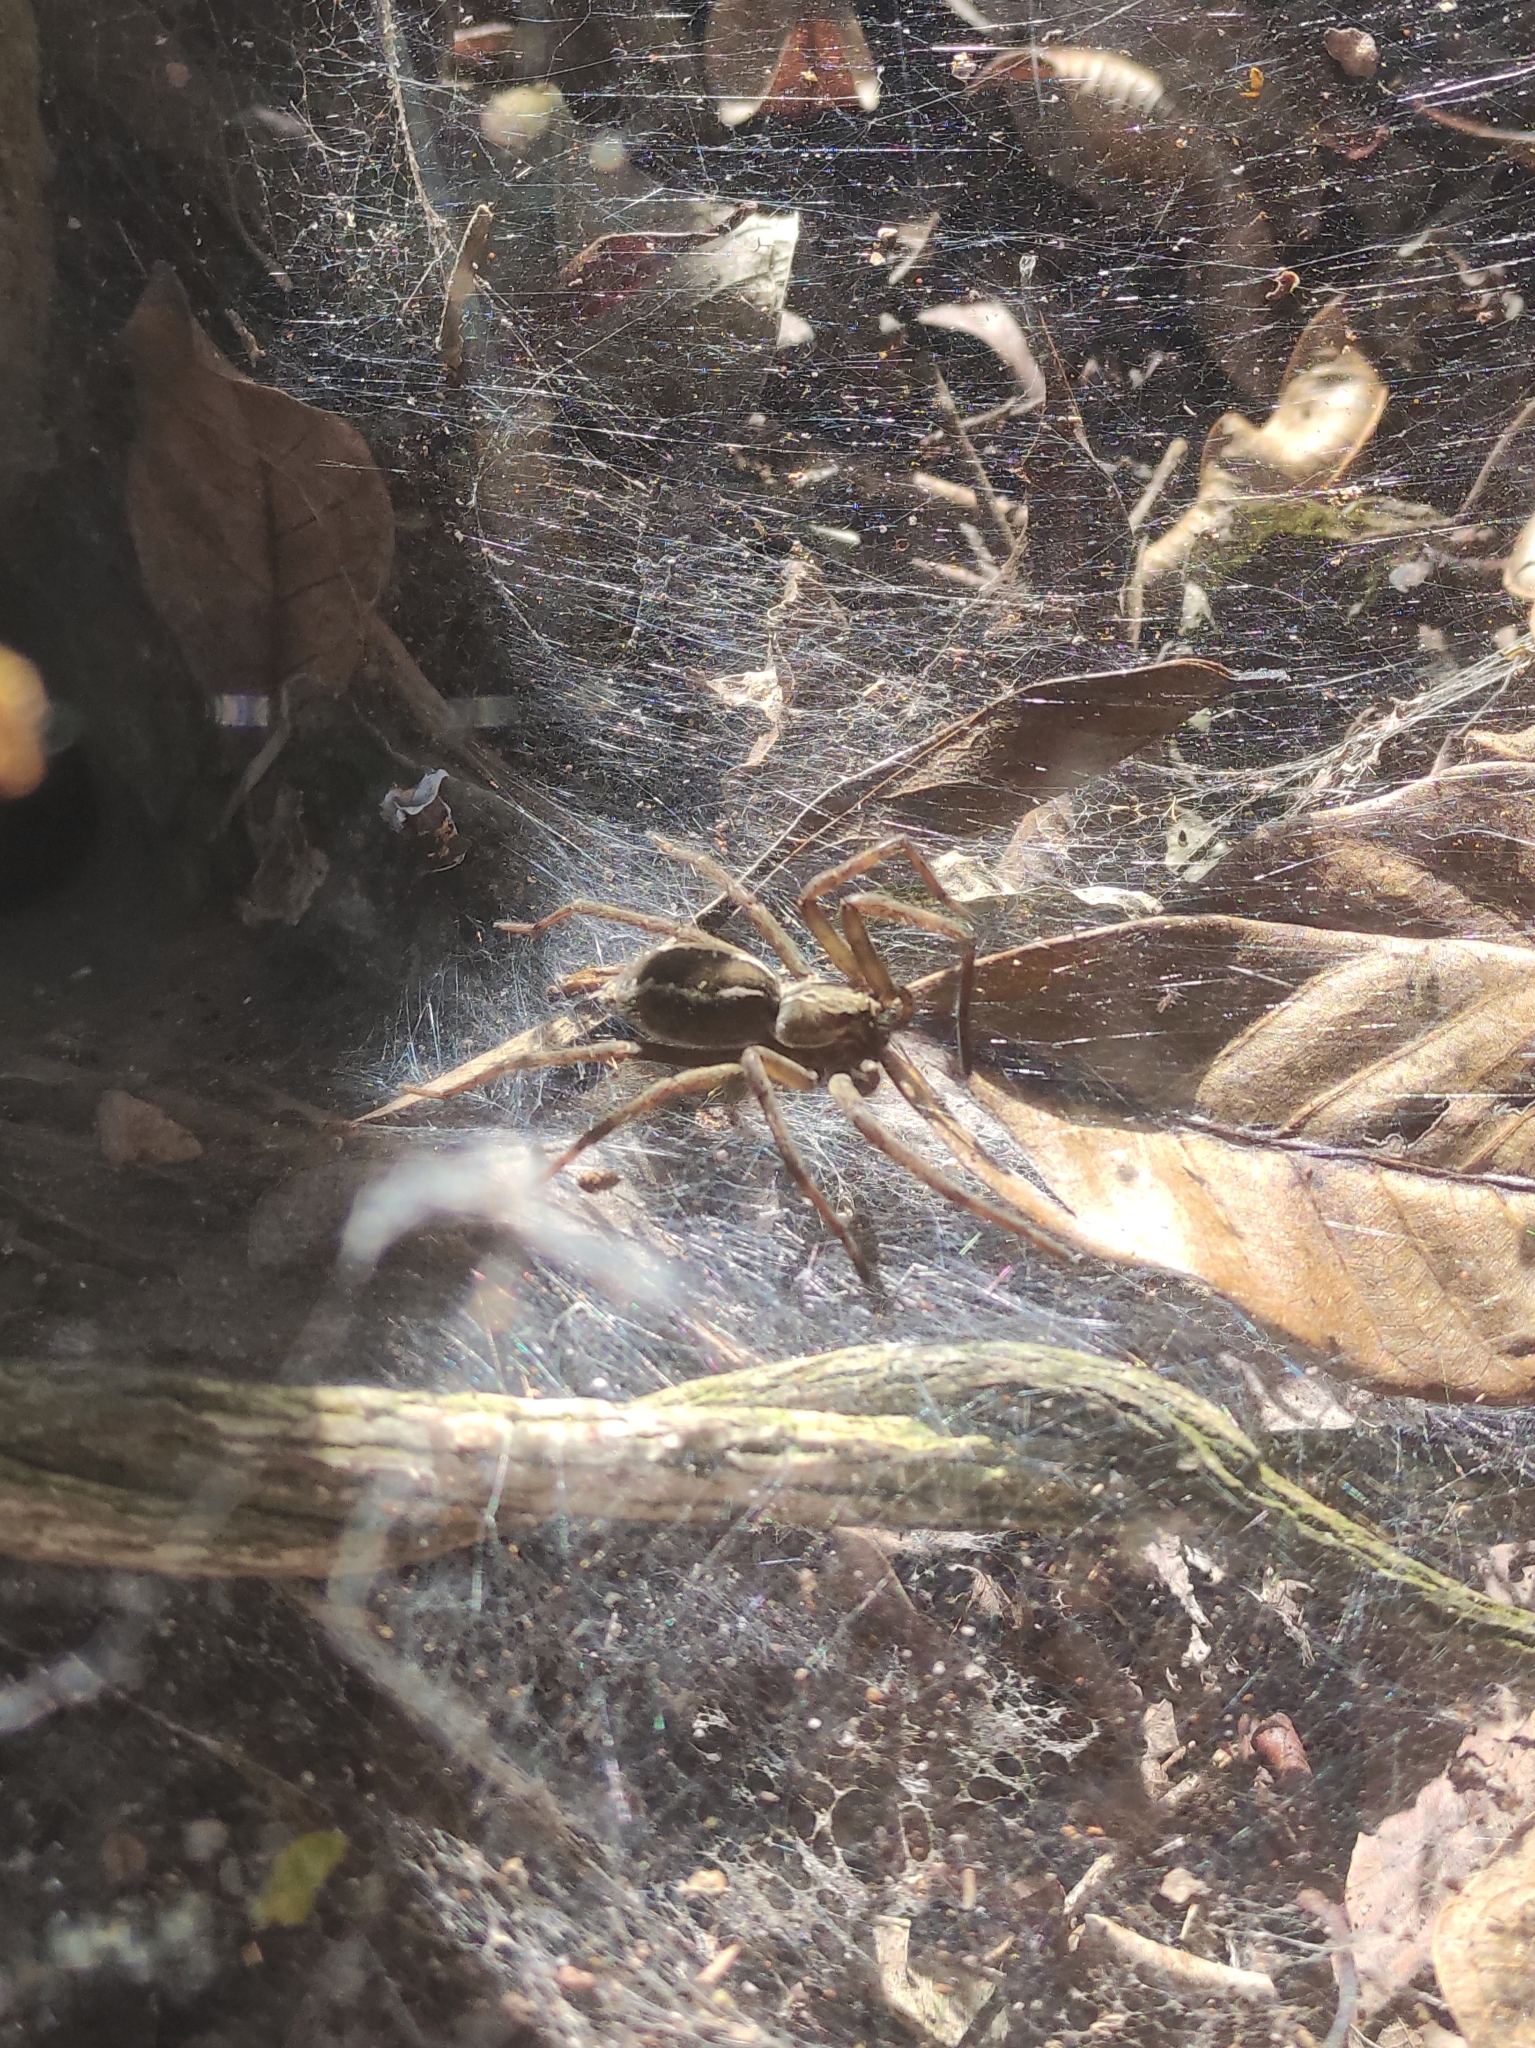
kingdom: Animalia
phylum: Arthropoda
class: Arachnida
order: Araneae
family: Lycosidae
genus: Aglaoctenus
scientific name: Aglaoctenus lagotis
